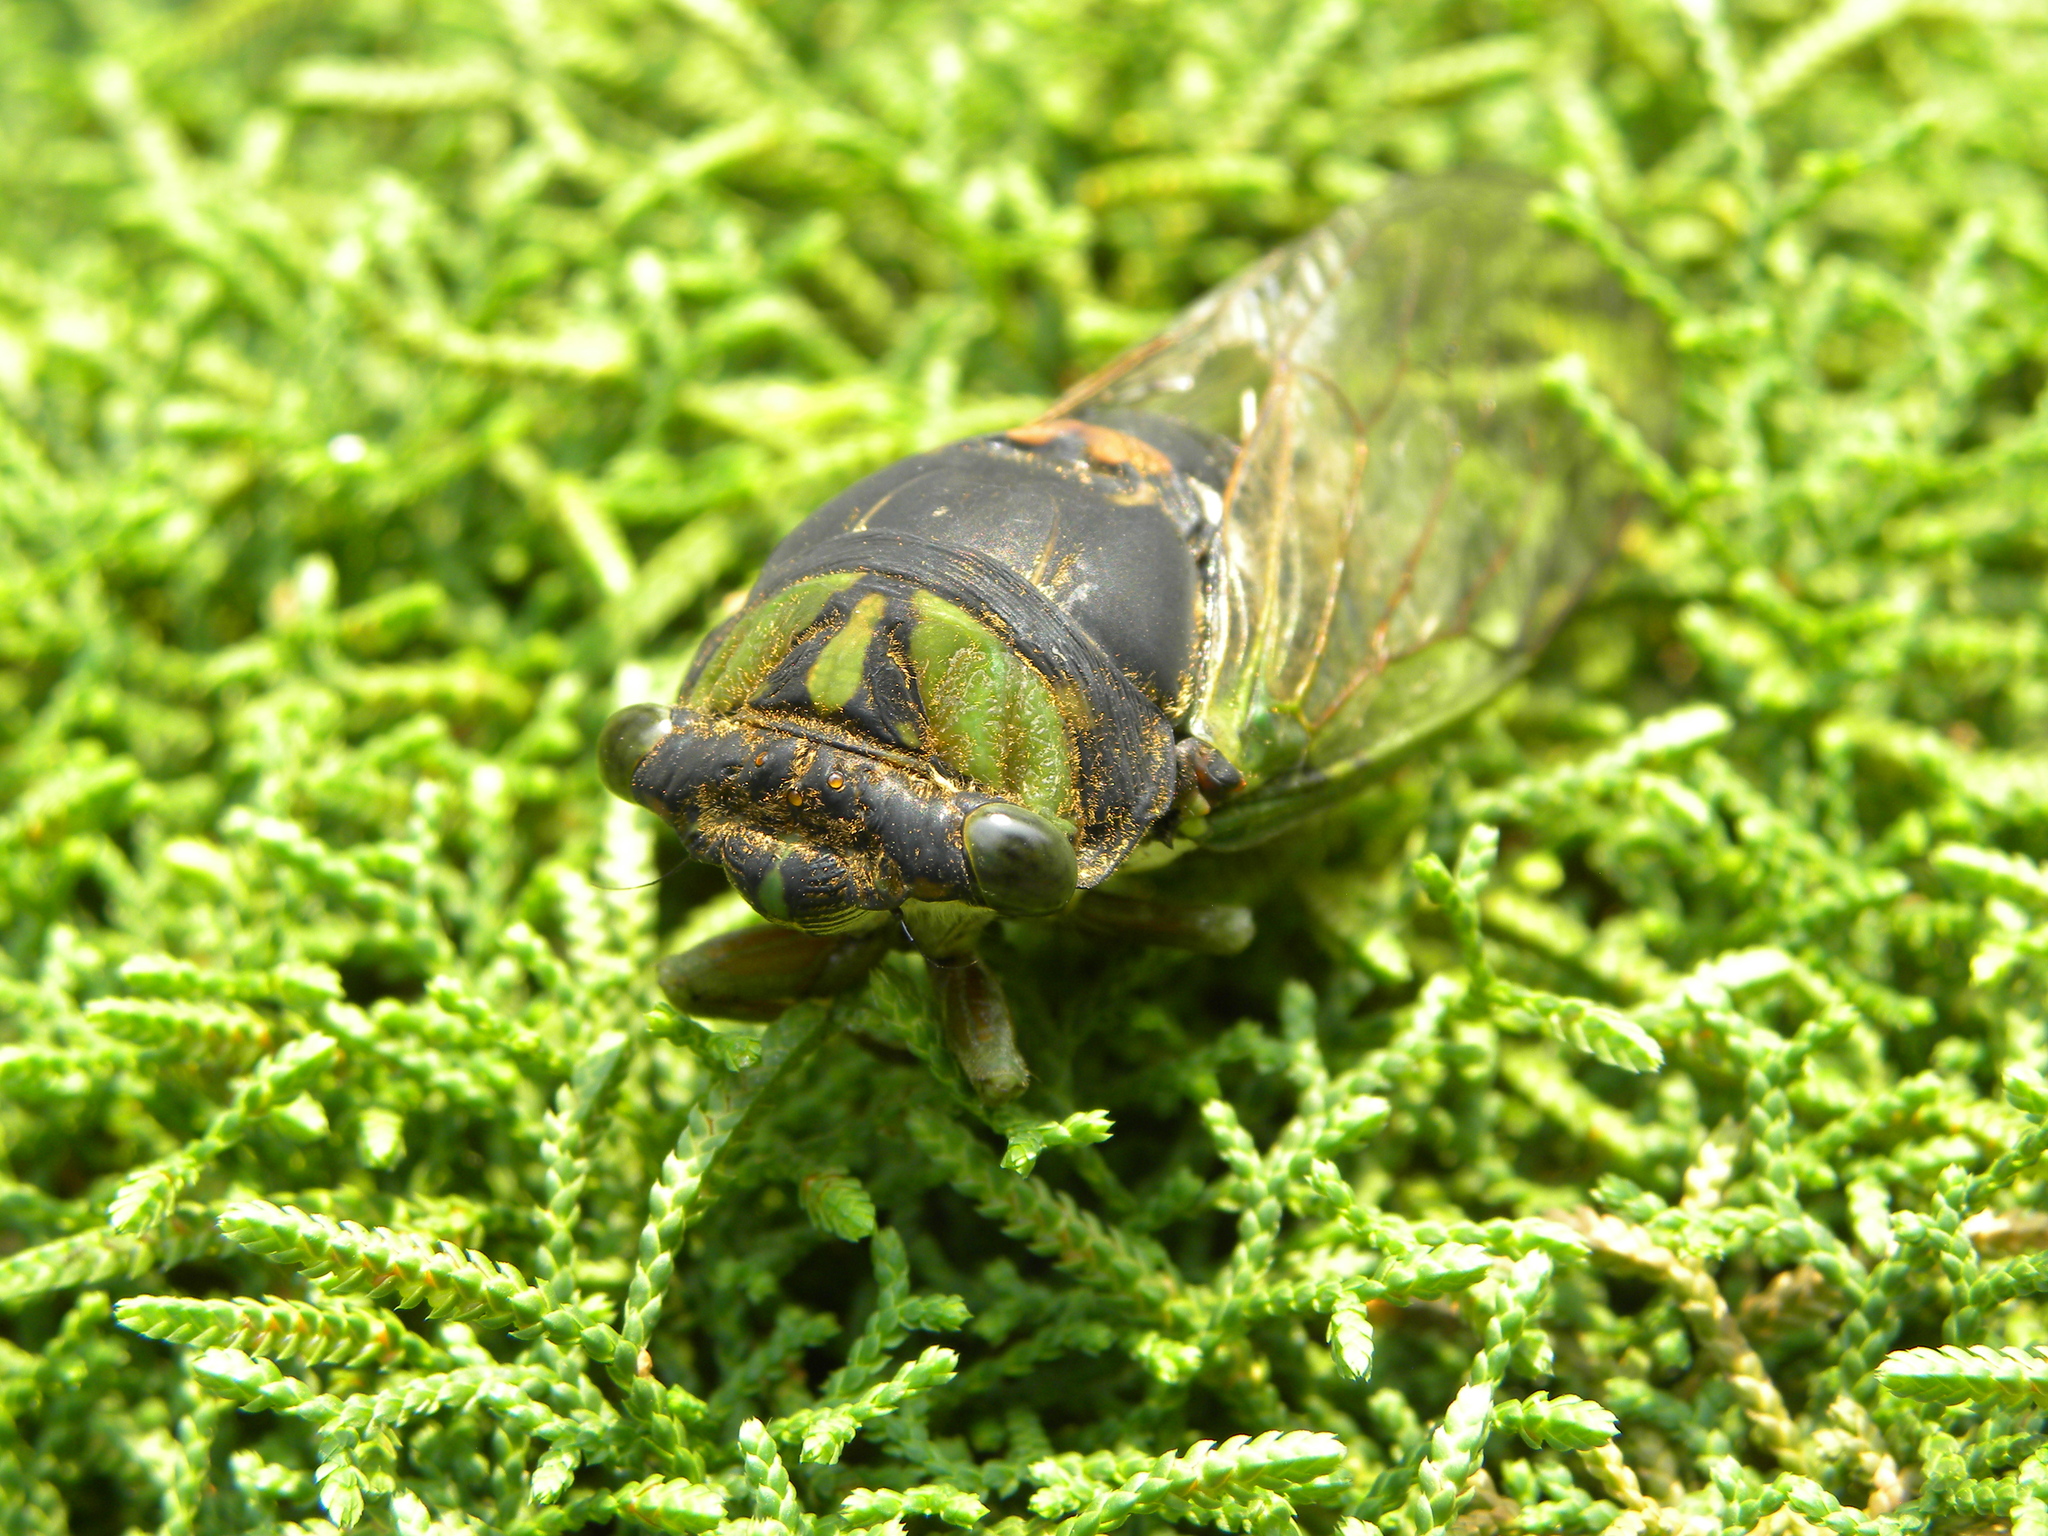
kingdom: Animalia
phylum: Arthropoda
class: Insecta
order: Hemiptera
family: Cicadidae
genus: Neotibicen
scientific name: Neotibicen tibicen
